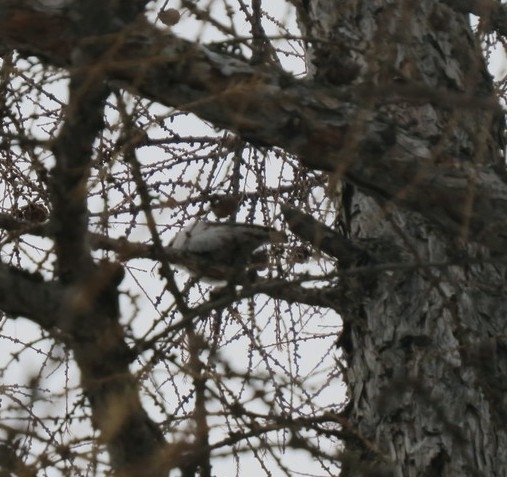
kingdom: Animalia
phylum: Chordata
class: Aves
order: Passeriformes
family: Sittidae
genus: Sitta
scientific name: Sitta europaea
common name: Eurasian nuthatch
